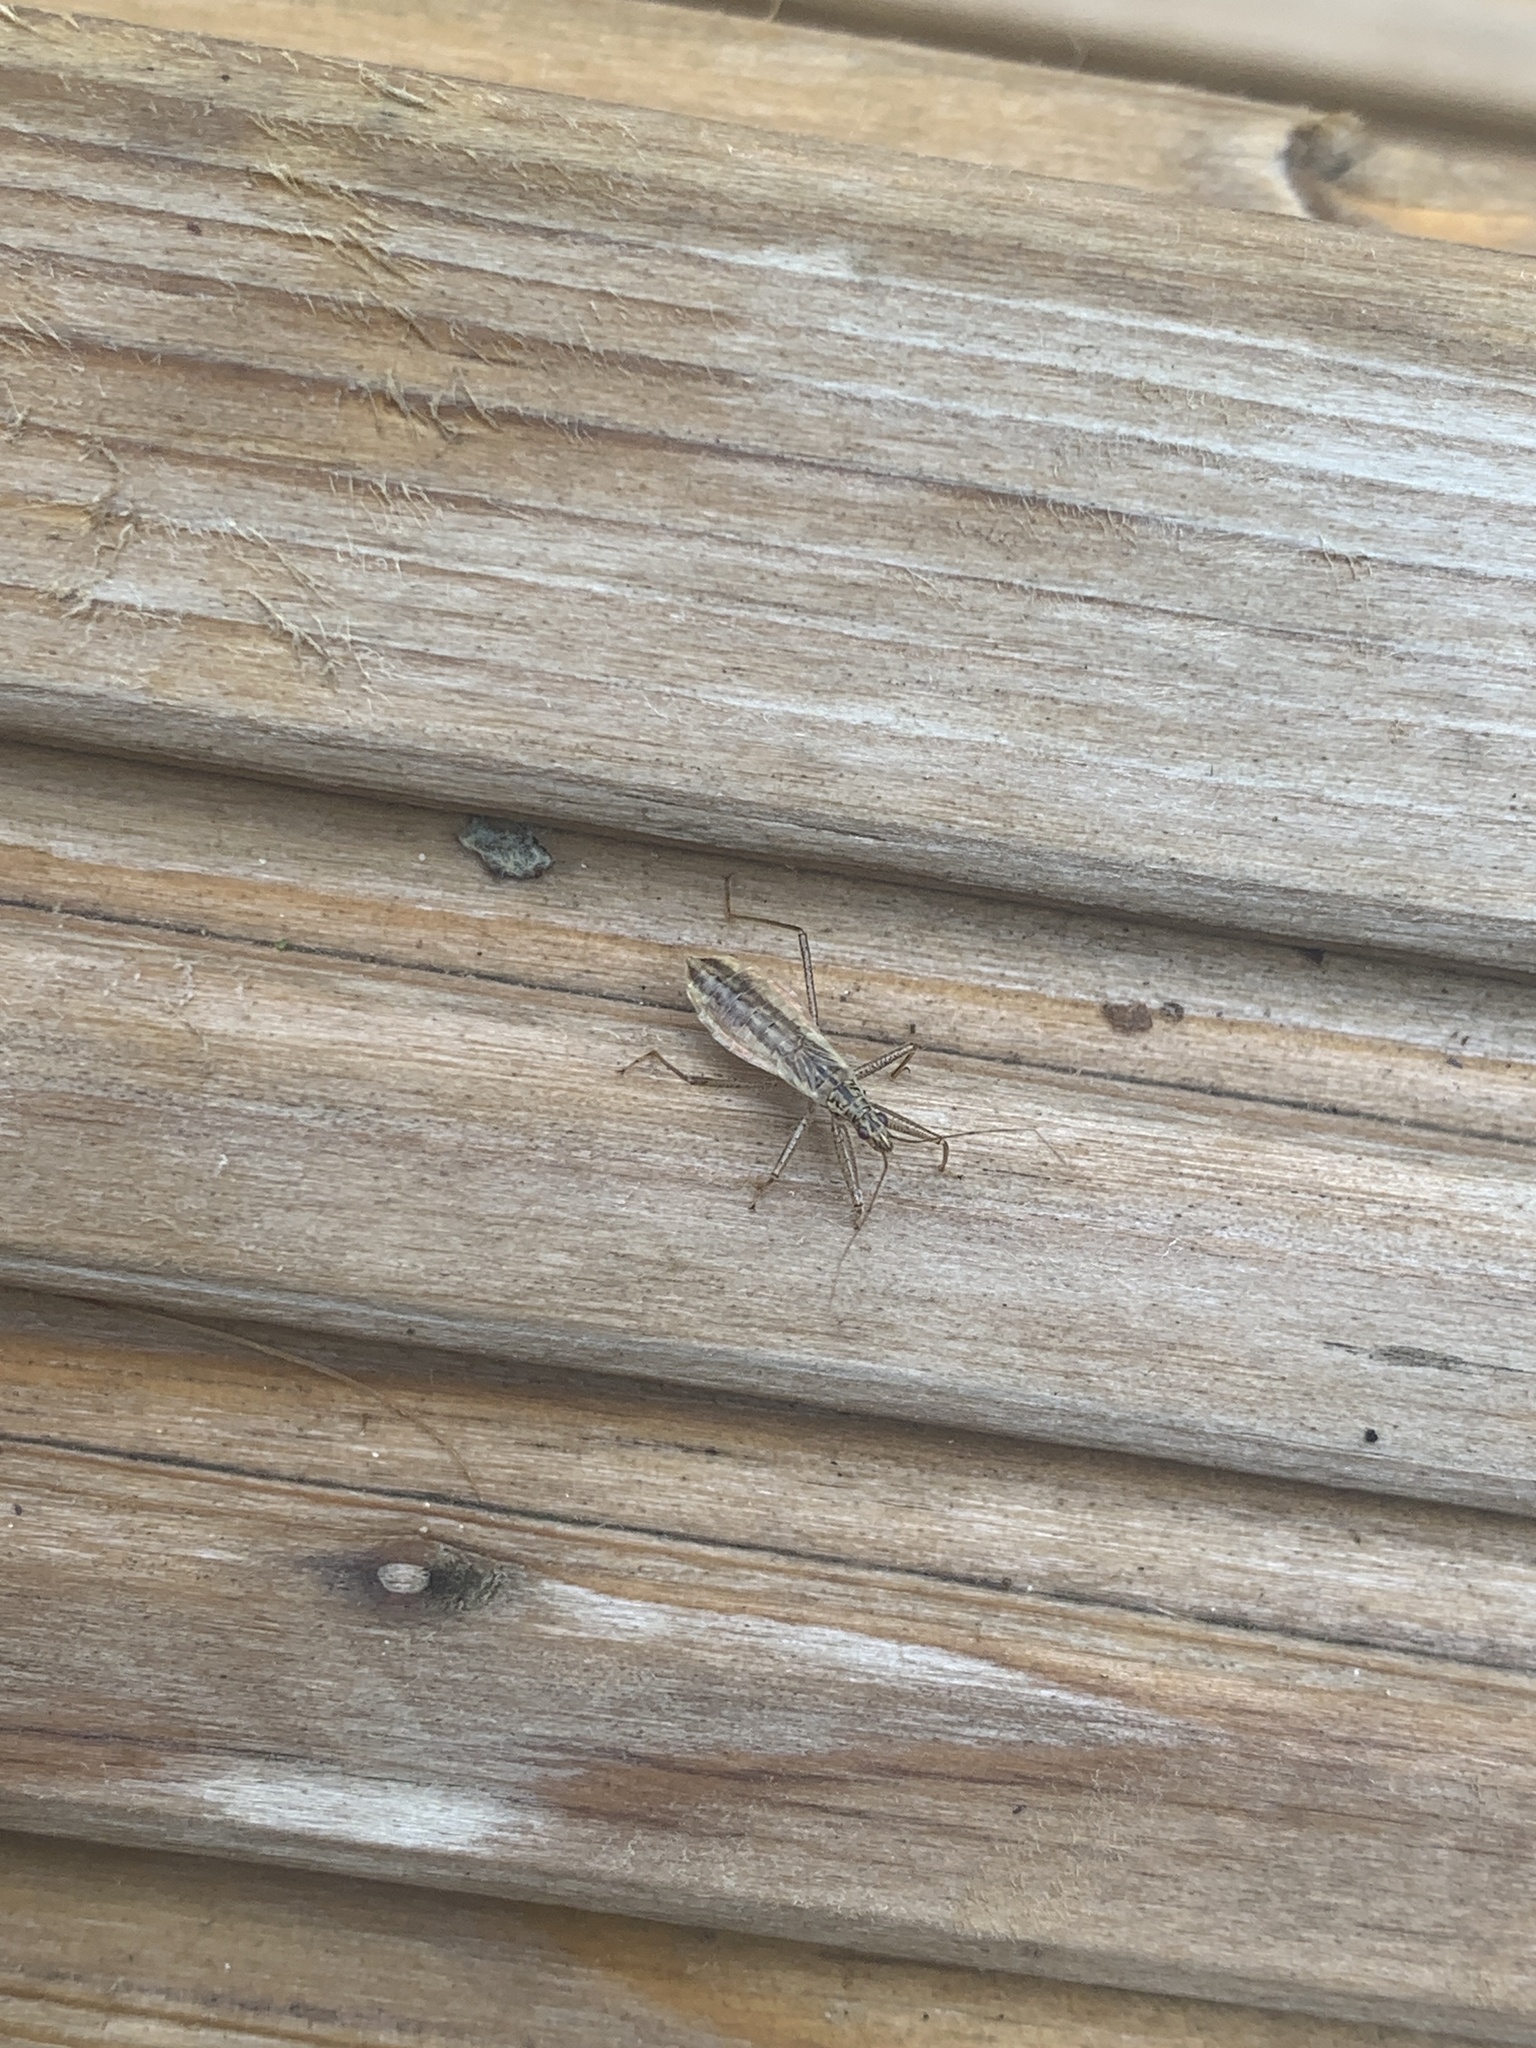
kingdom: Animalia
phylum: Arthropoda
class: Insecta
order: Hemiptera
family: Nabidae
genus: Nabis
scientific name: Nabis limbatus
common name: Marsh damselbug
